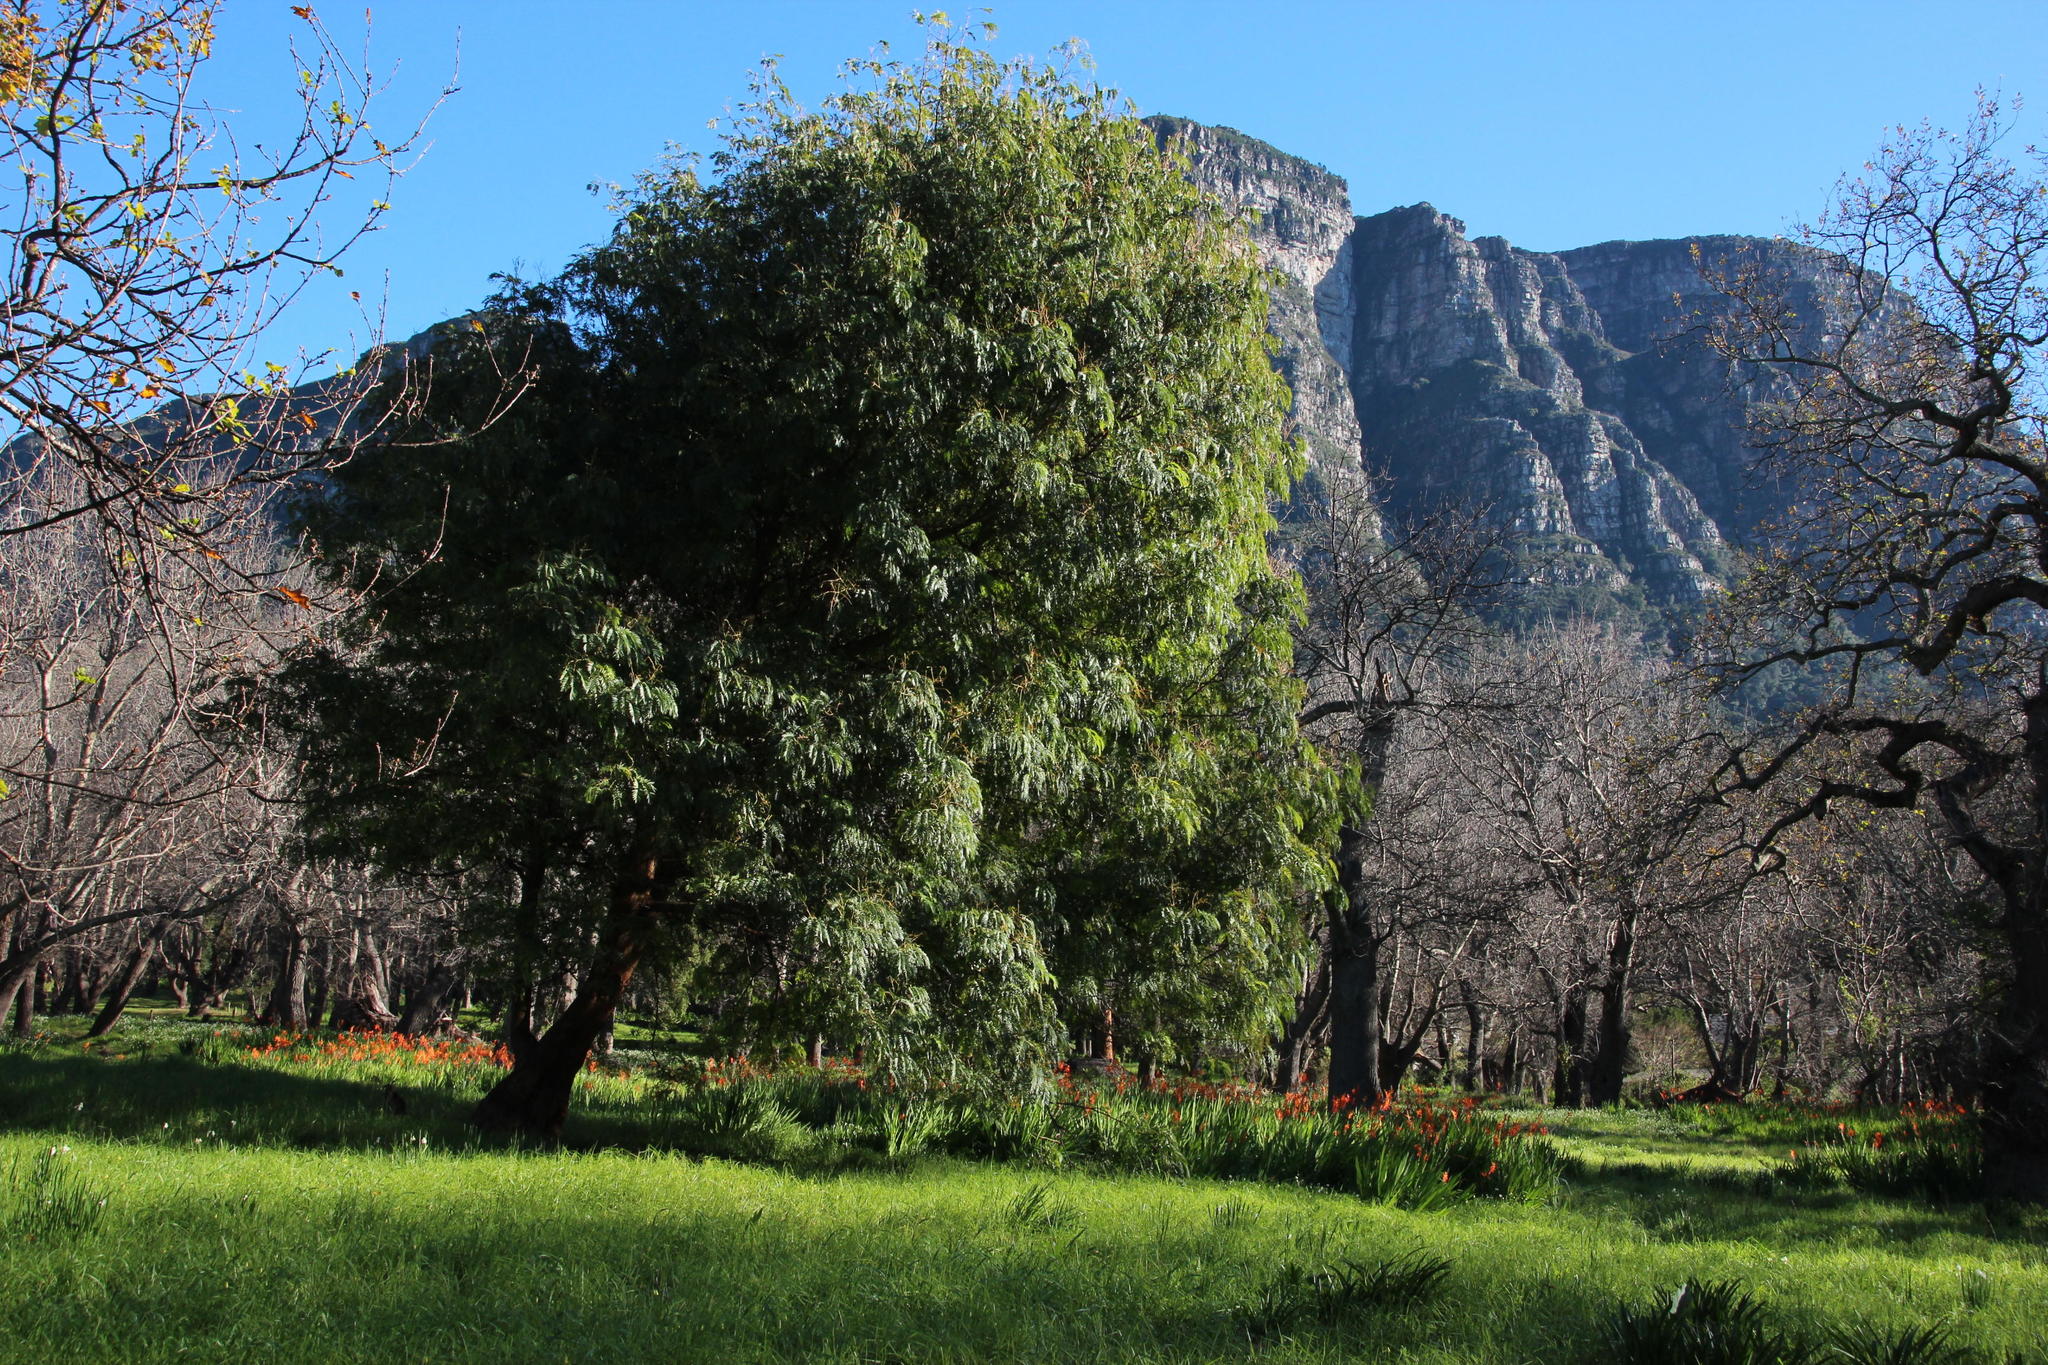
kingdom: Plantae
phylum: Tracheophyta
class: Magnoliopsida
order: Fabales
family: Fabaceae
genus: Acacia
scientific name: Acacia elata
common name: Cedar wattle
